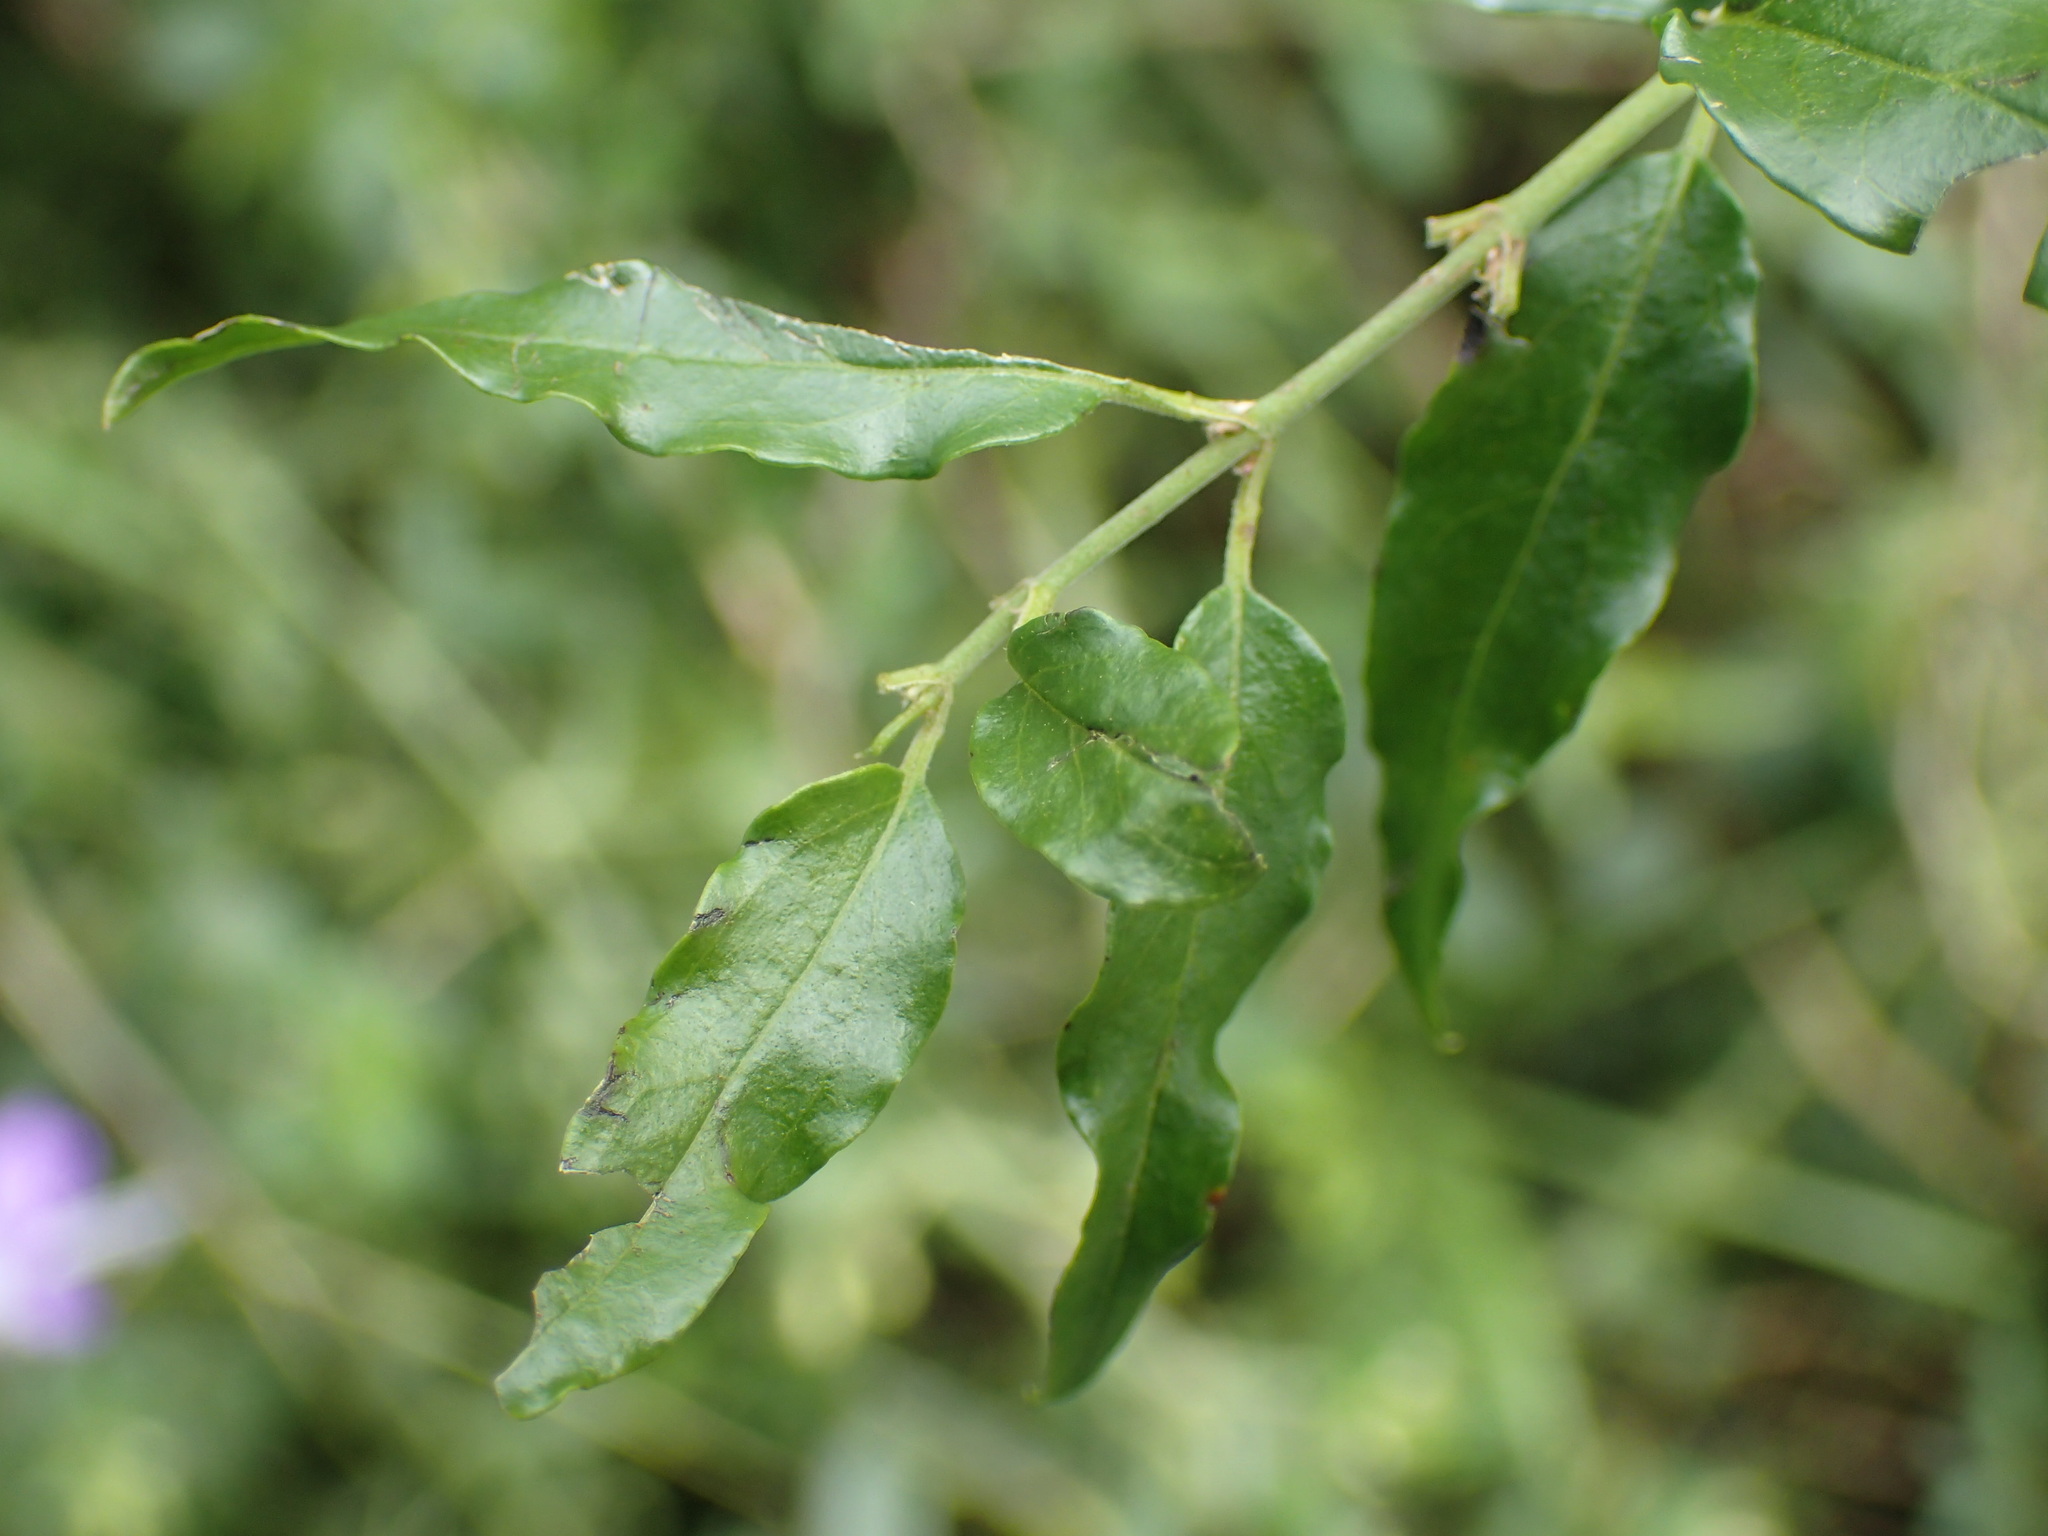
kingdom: Plantae
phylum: Tracheophyta
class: Magnoliopsida
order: Brassicales
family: Capparaceae
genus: Capparis
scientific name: Capparis fascicularis
